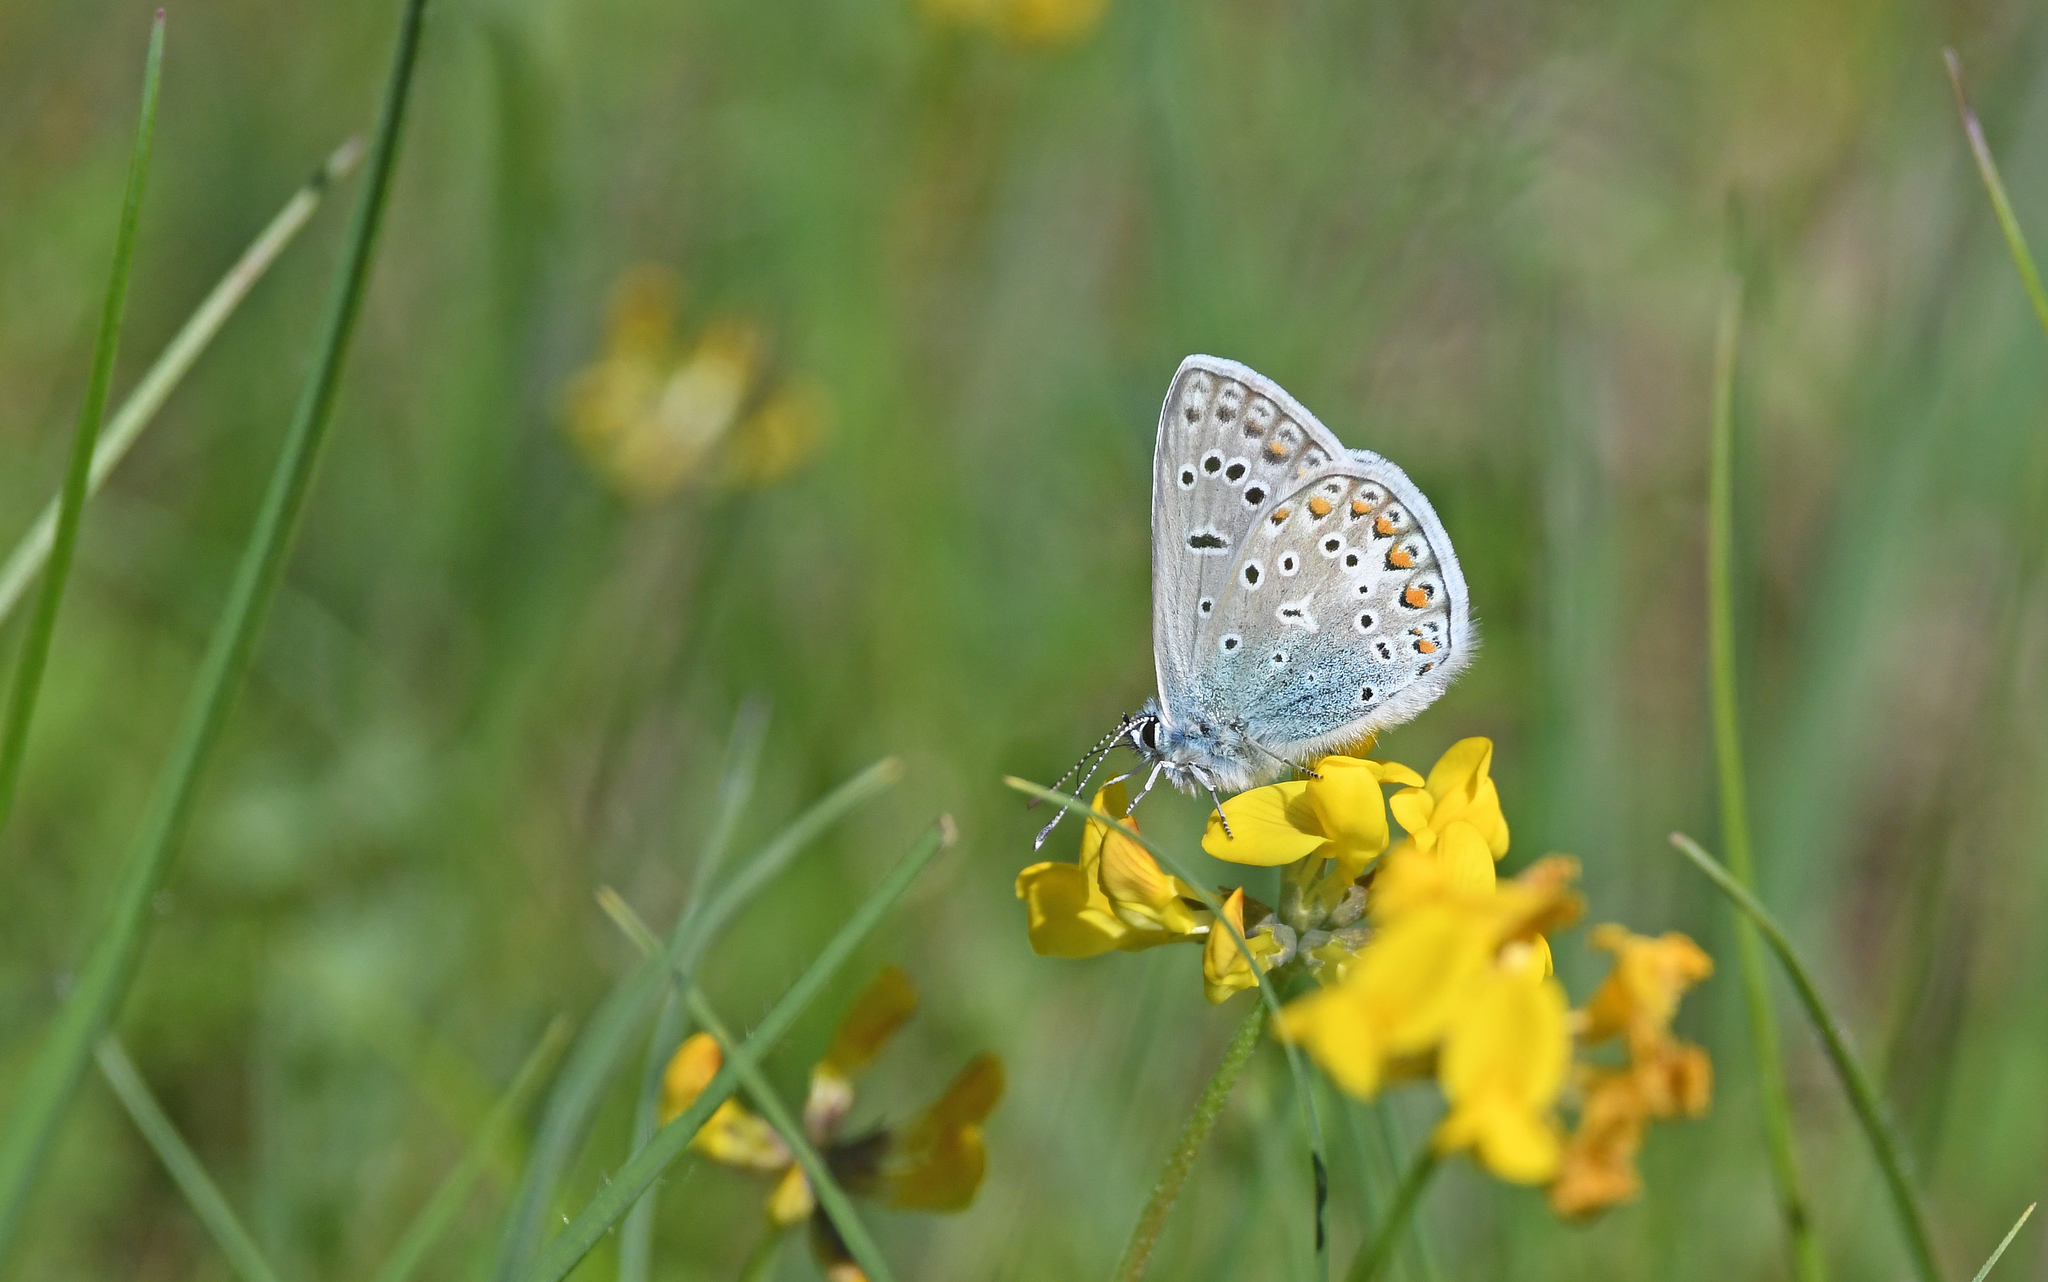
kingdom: Animalia
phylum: Arthropoda
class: Insecta
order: Lepidoptera
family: Lycaenidae
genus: Polyommatus
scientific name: Polyommatus icarus
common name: Common blue
